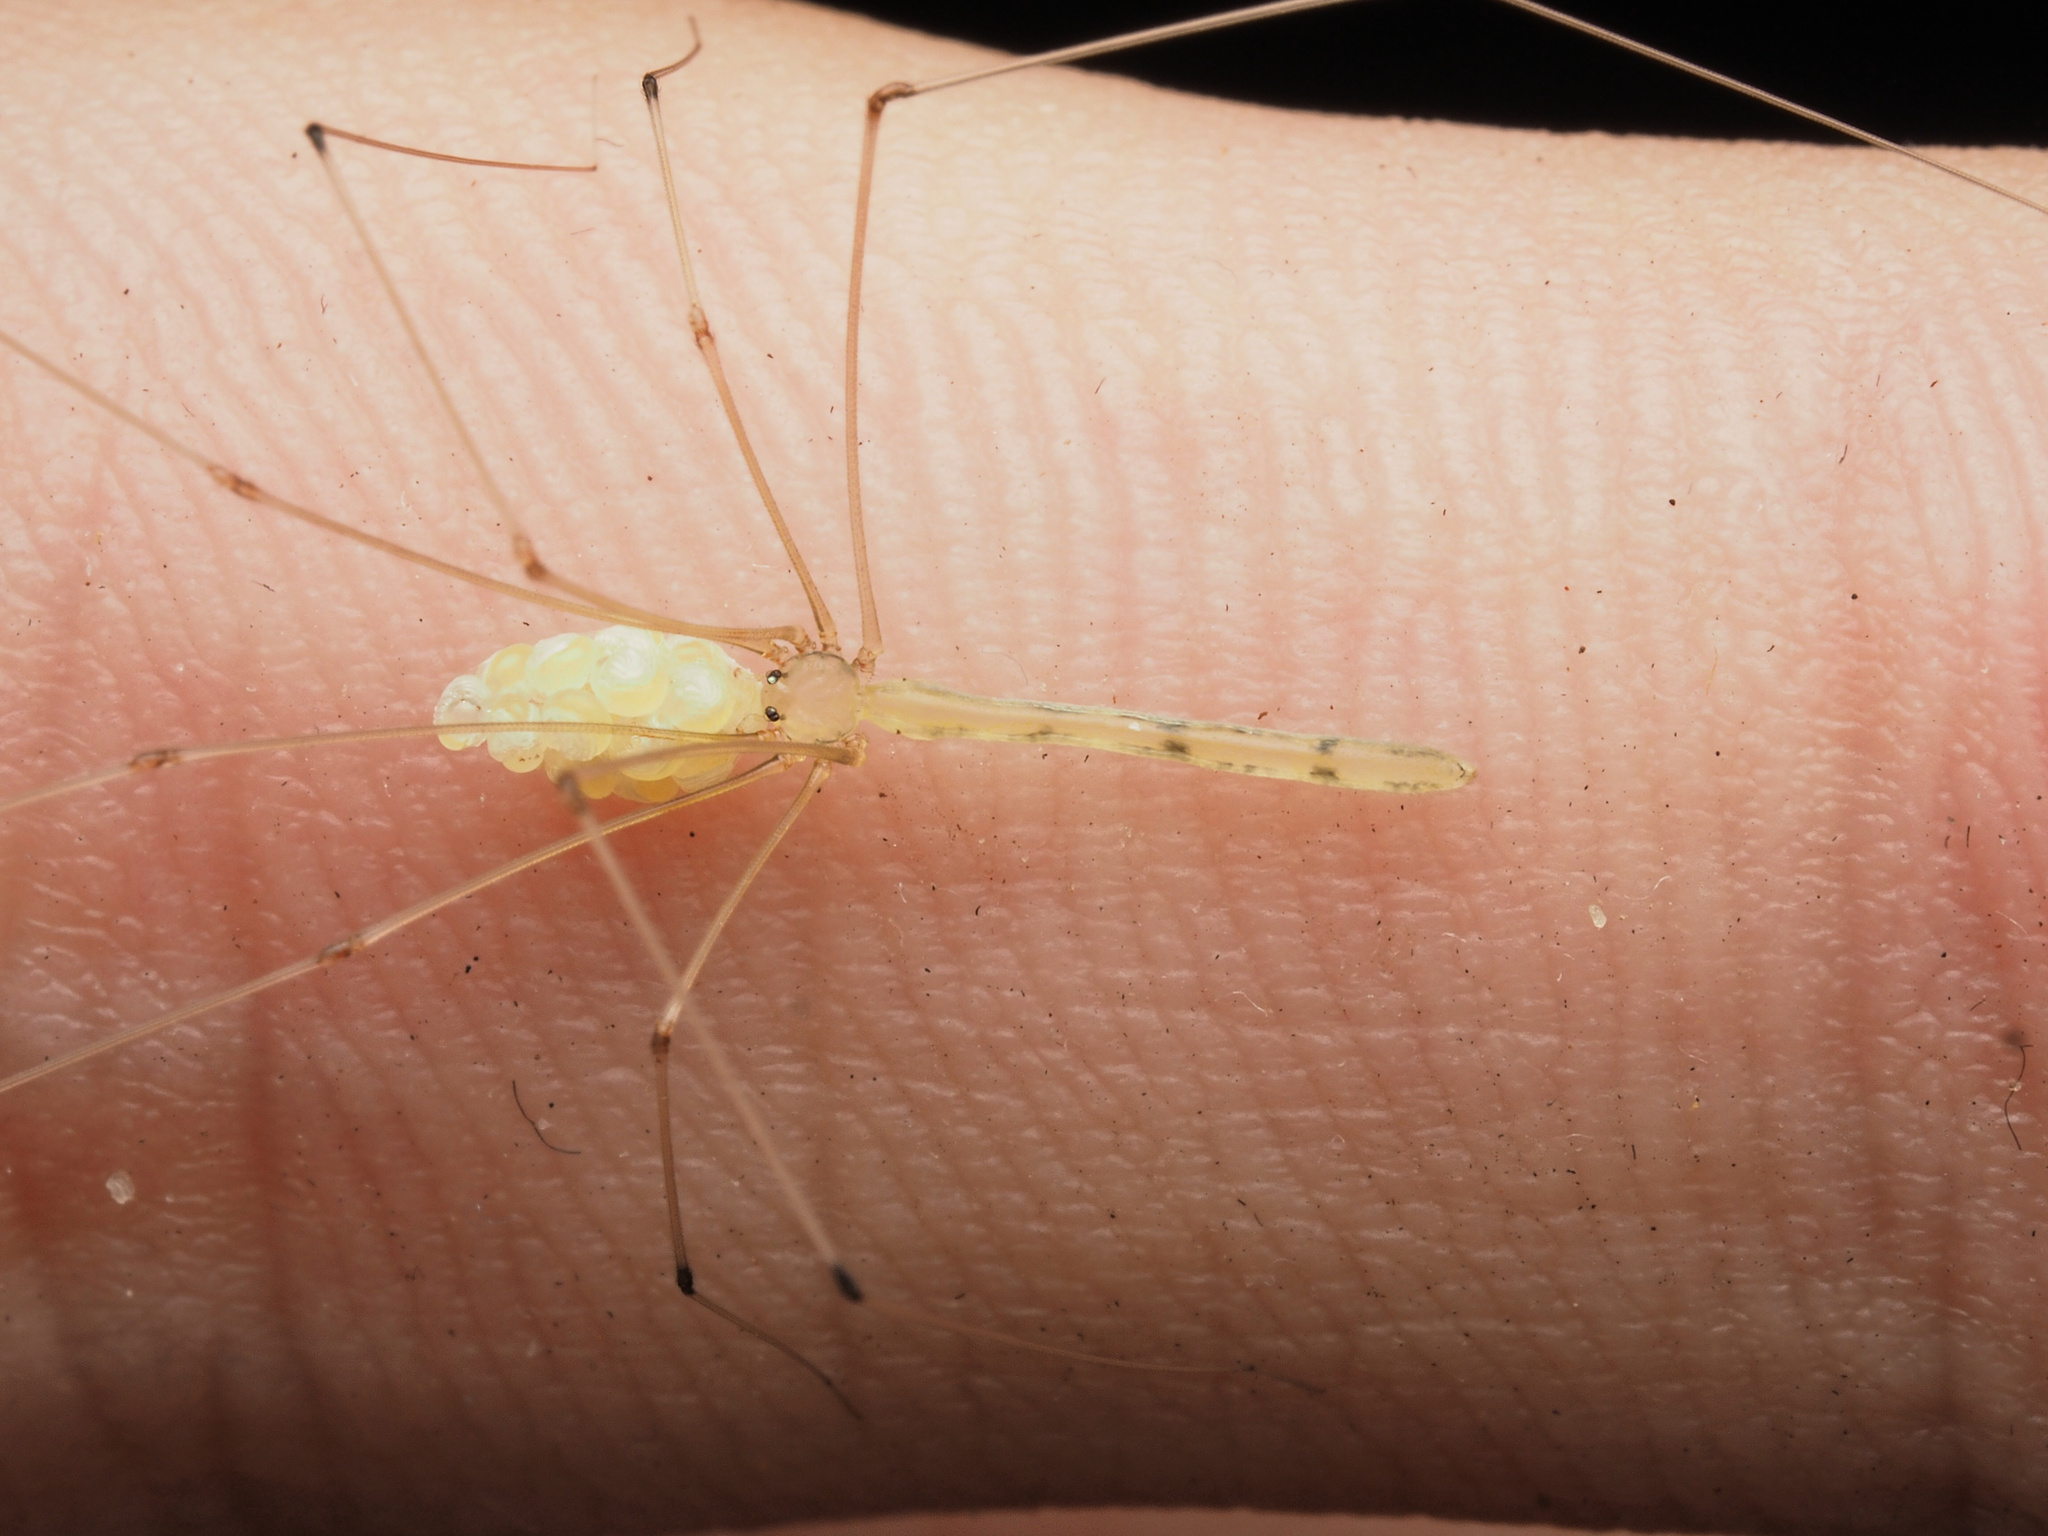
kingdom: Animalia
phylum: Arthropoda
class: Arachnida
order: Araneae
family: Pholcidae
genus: Micromerys
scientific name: Micromerys raveni
